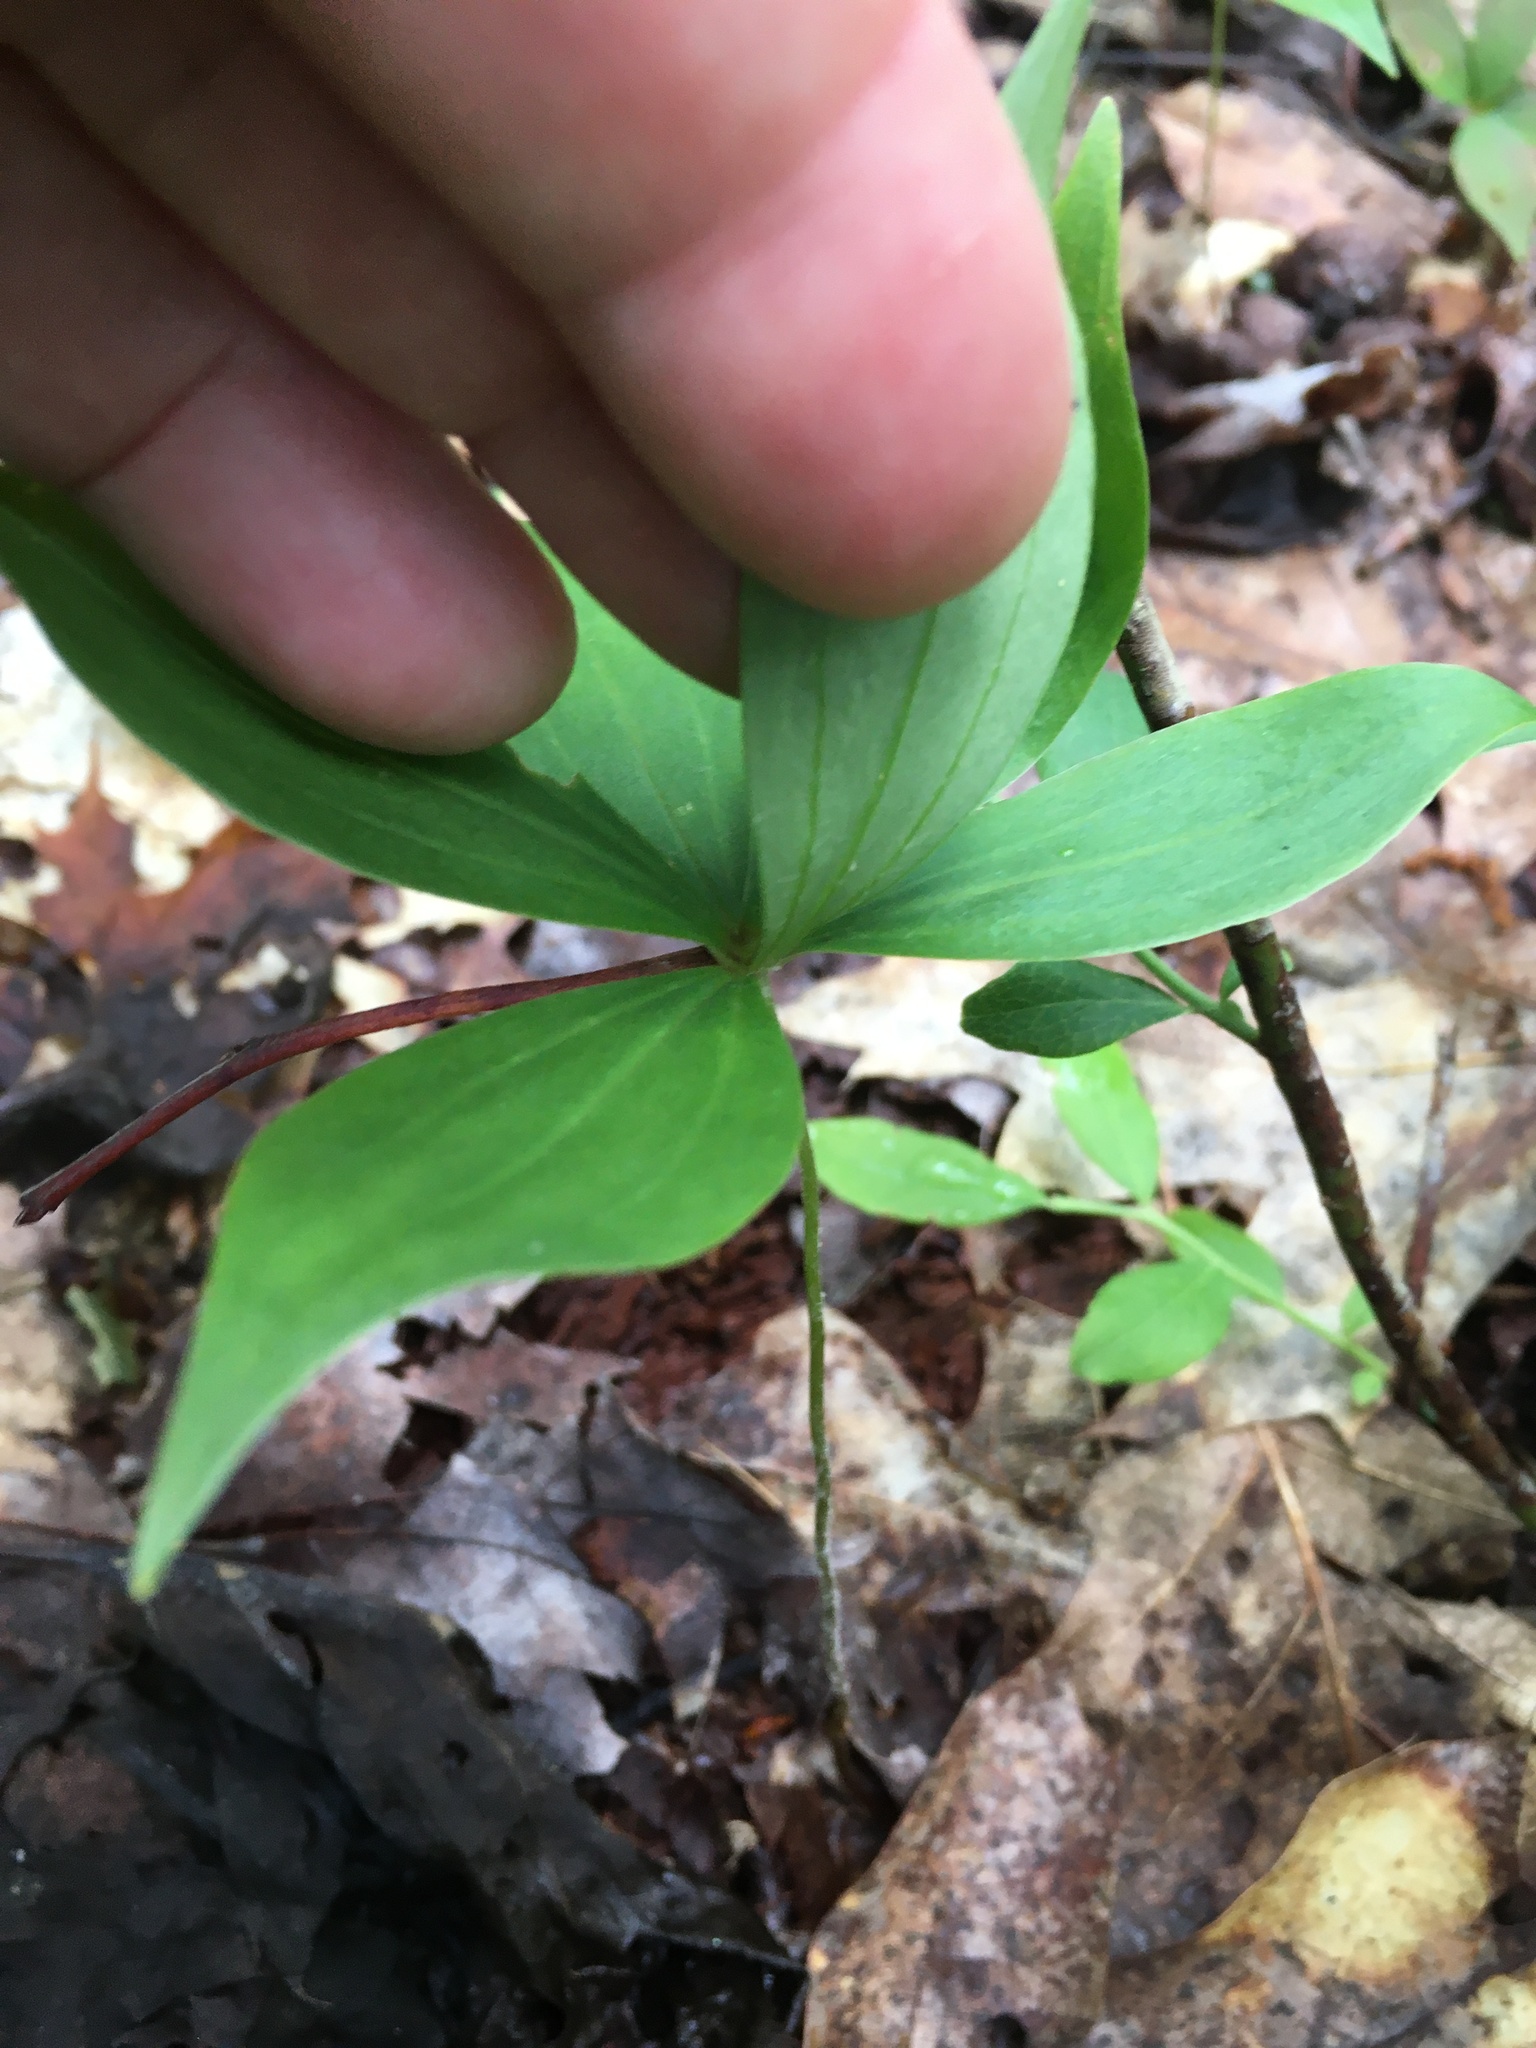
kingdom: Plantae
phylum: Tracheophyta
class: Liliopsida
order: Liliales
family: Liliaceae
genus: Medeola
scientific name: Medeola virginiana
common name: Indian cucumber-root
